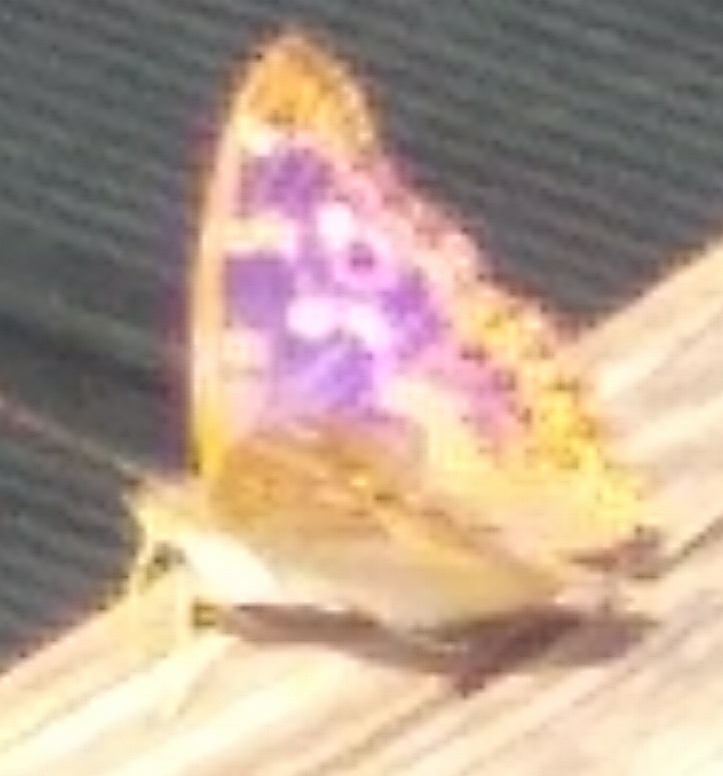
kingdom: Animalia
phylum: Arthropoda
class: Insecta
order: Lepidoptera
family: Nymphalidae
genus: Apatura
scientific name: Apatura ilia
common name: Lesser purple emperor
